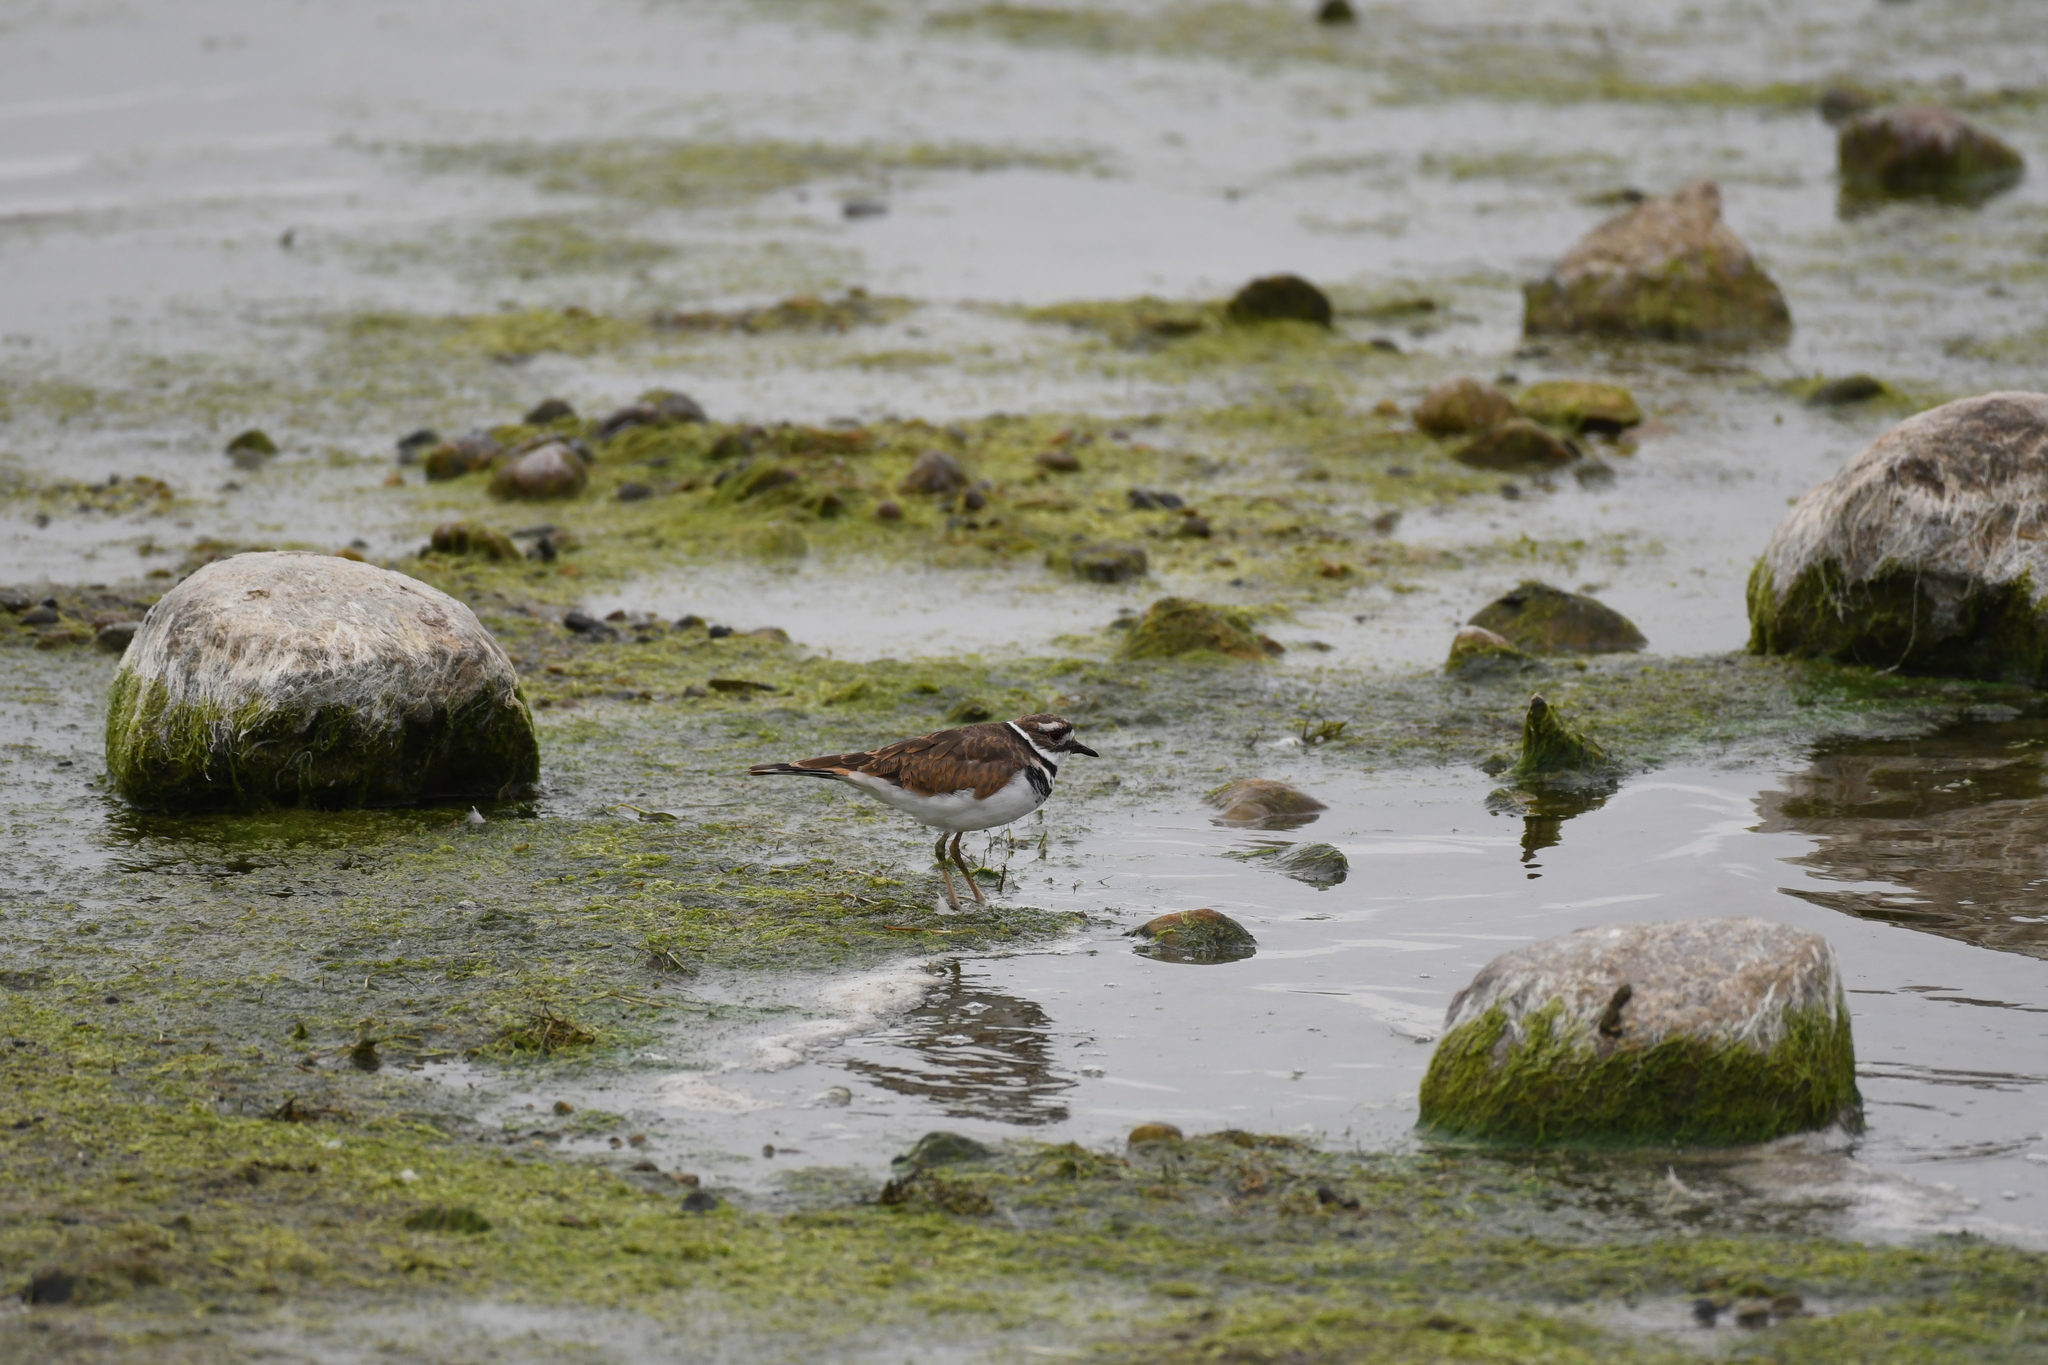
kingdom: Animalia
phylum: Chordata
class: Aves
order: Charadriiformes
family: Charadriidae
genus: Charadrius
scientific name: Charadrius vociferus
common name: Killdeer
